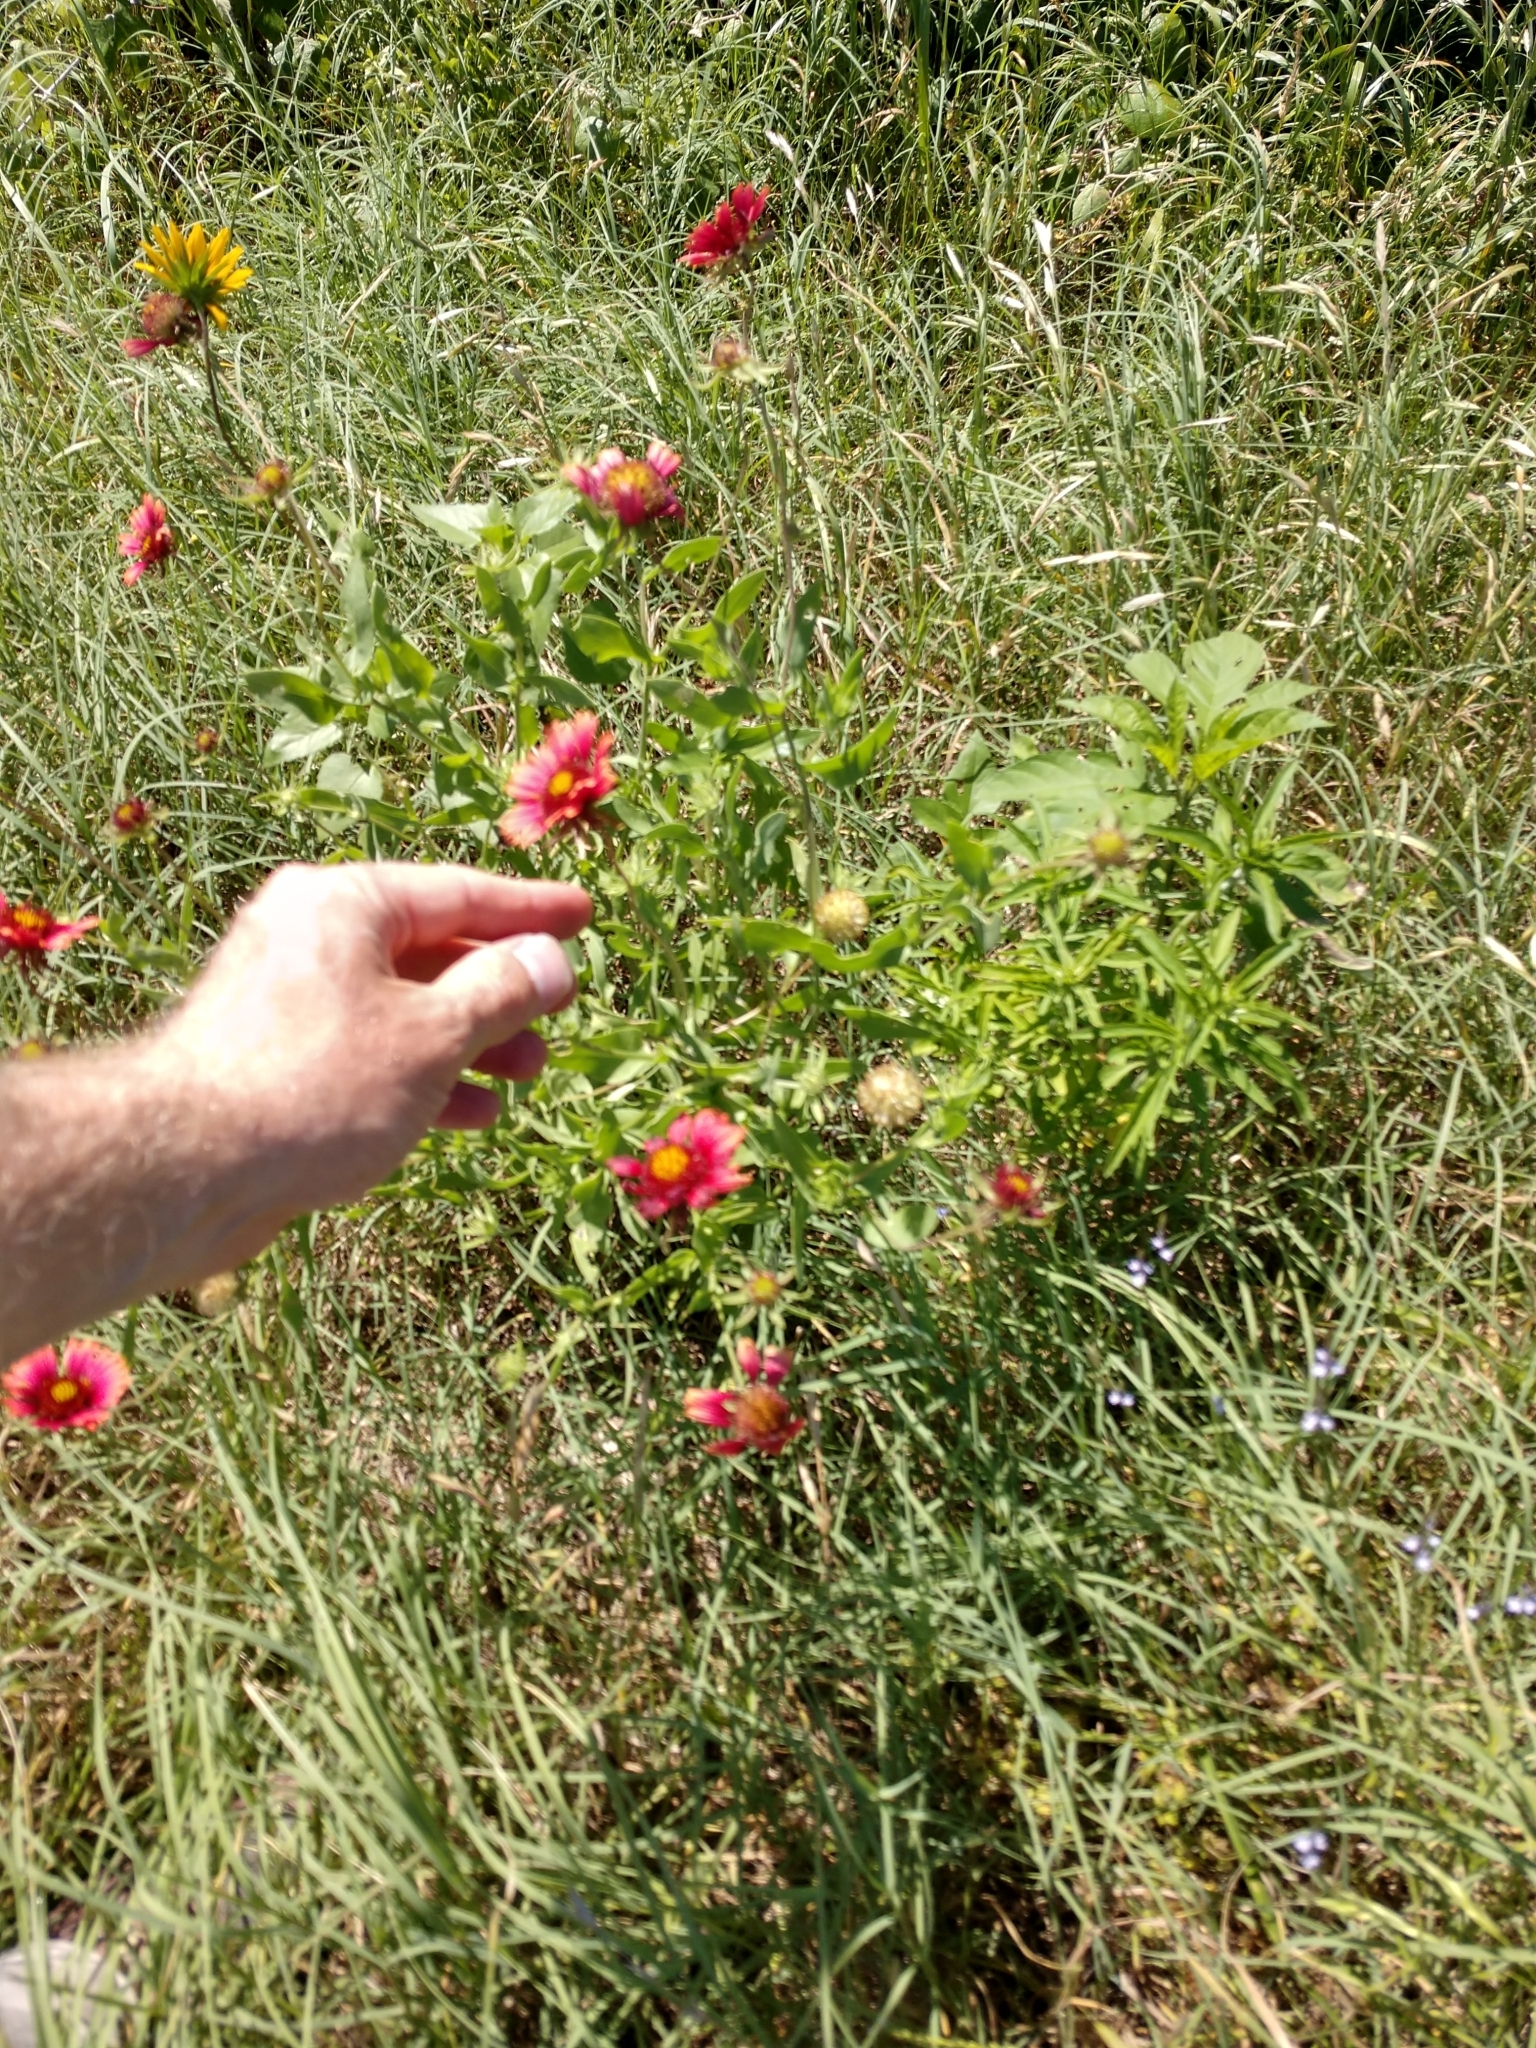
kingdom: Plantae
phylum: Tracheophyta
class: Magnoliopsida
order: Asterales
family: Asteraceae
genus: Gaillardia
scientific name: Gaillardia amblyodon
